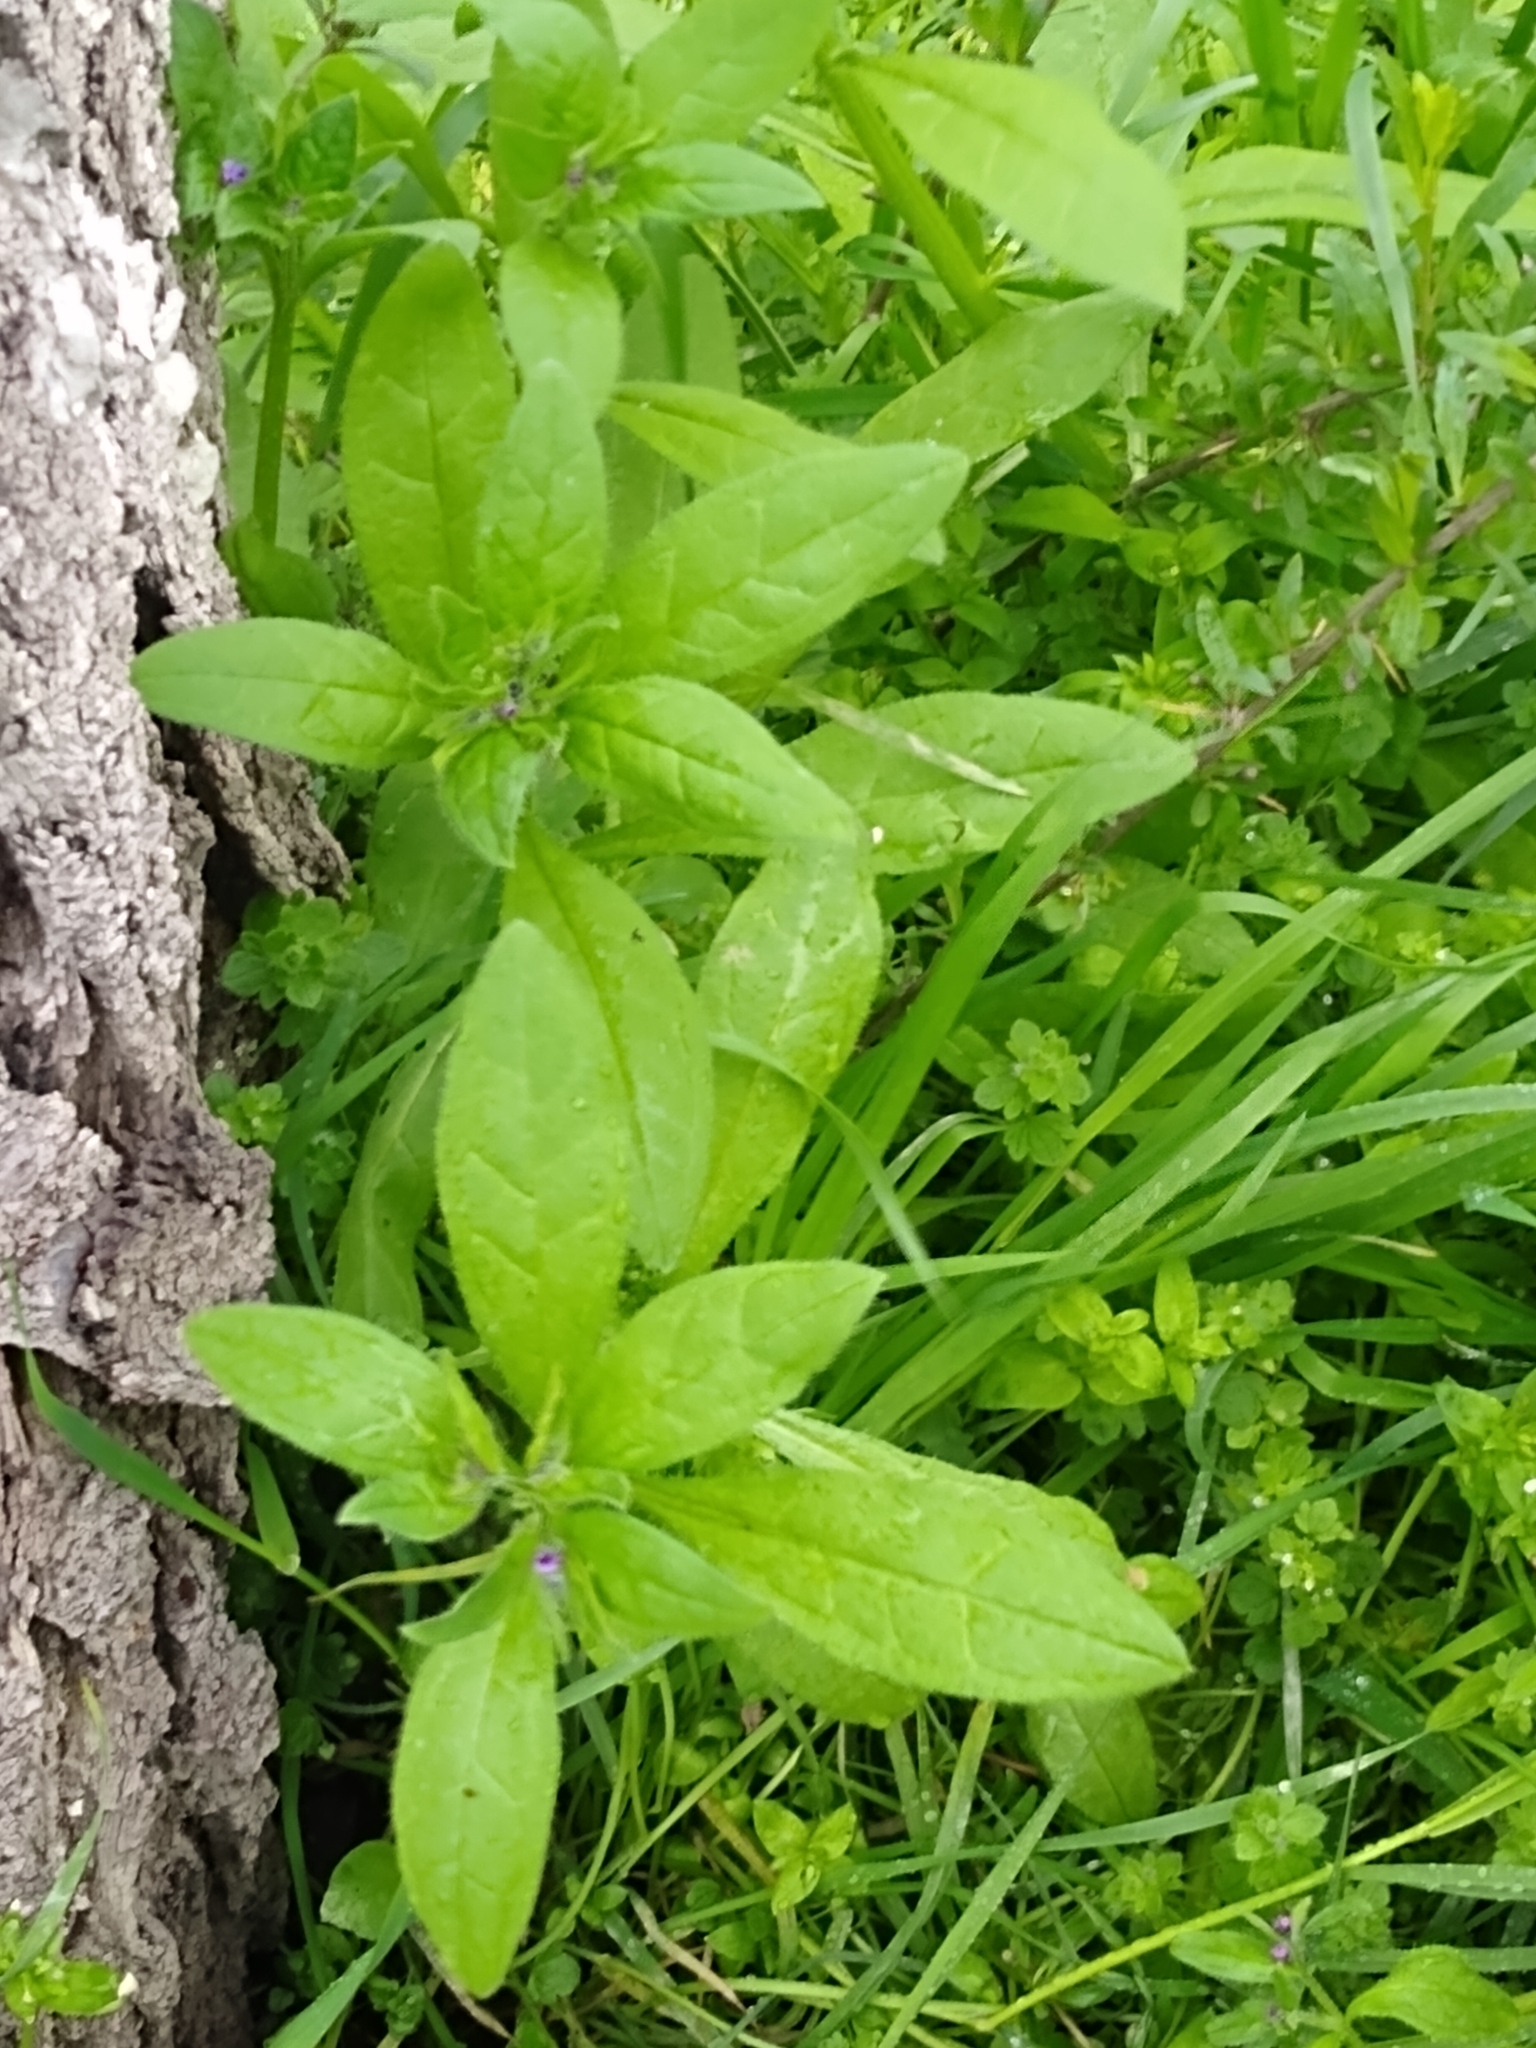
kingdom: Plantae
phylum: Tracheophyta
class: Magnoliopsida
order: Boraginales
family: Boraginaceae
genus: Asperugo
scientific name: Asperugo procumbens
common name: Madwort
